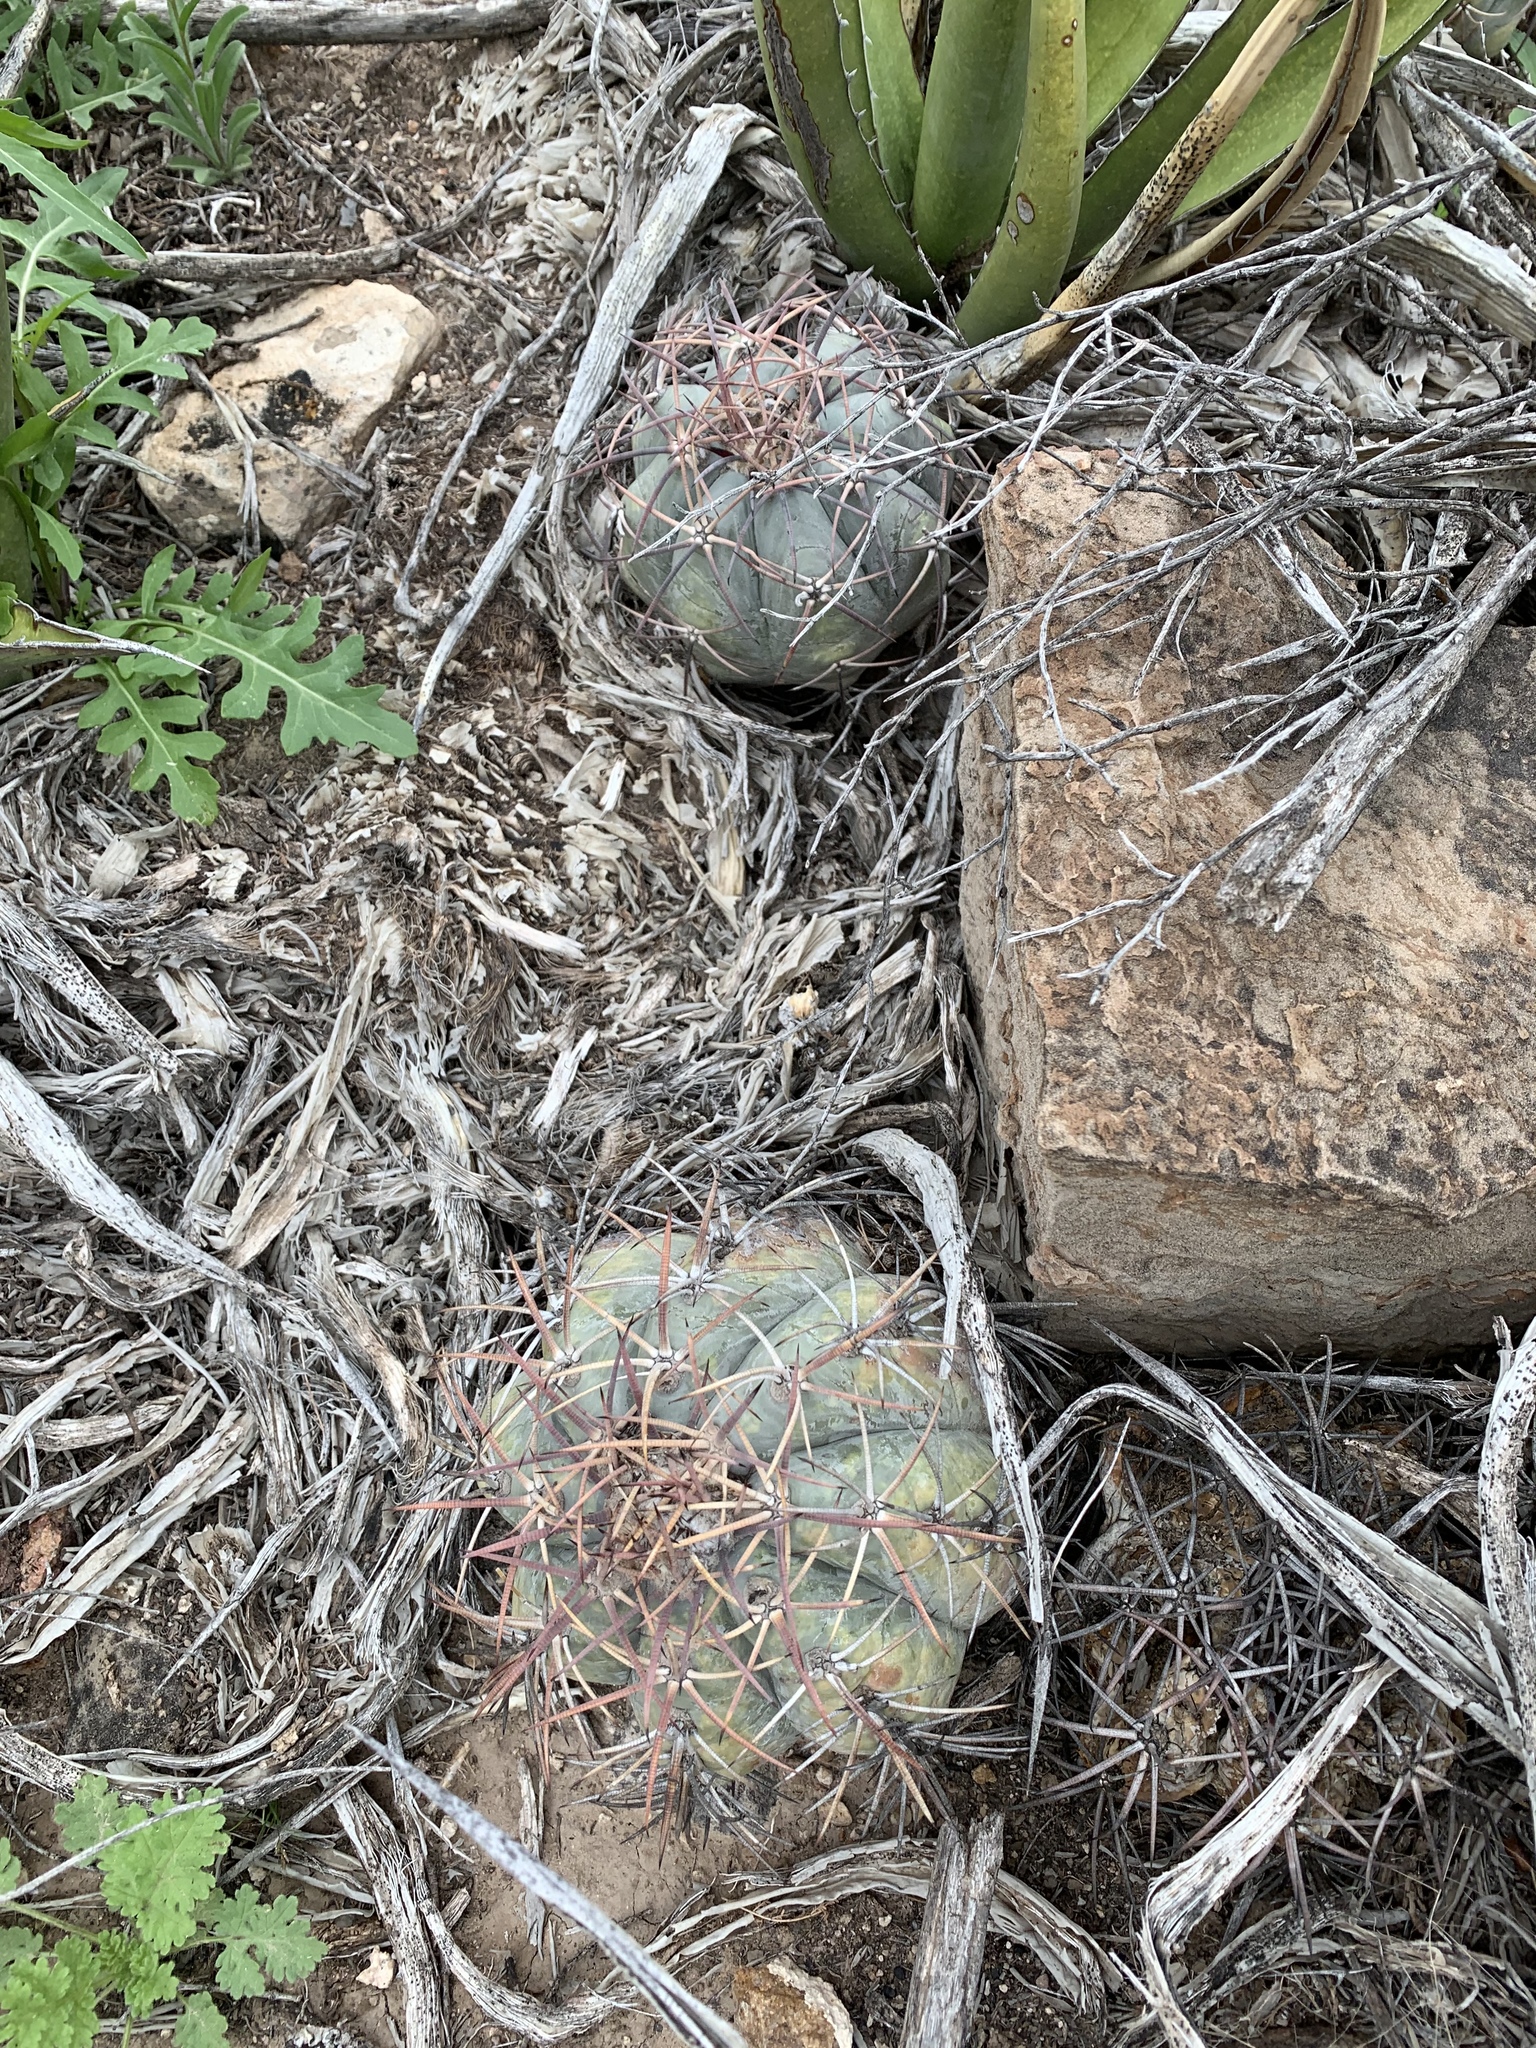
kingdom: Plantae
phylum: Tracheophyta
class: Magnoliopsida
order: Caryophyllales
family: Cactaceae
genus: Echinocactus
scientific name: Echinocactus horizonthalonius
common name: Devilshead
